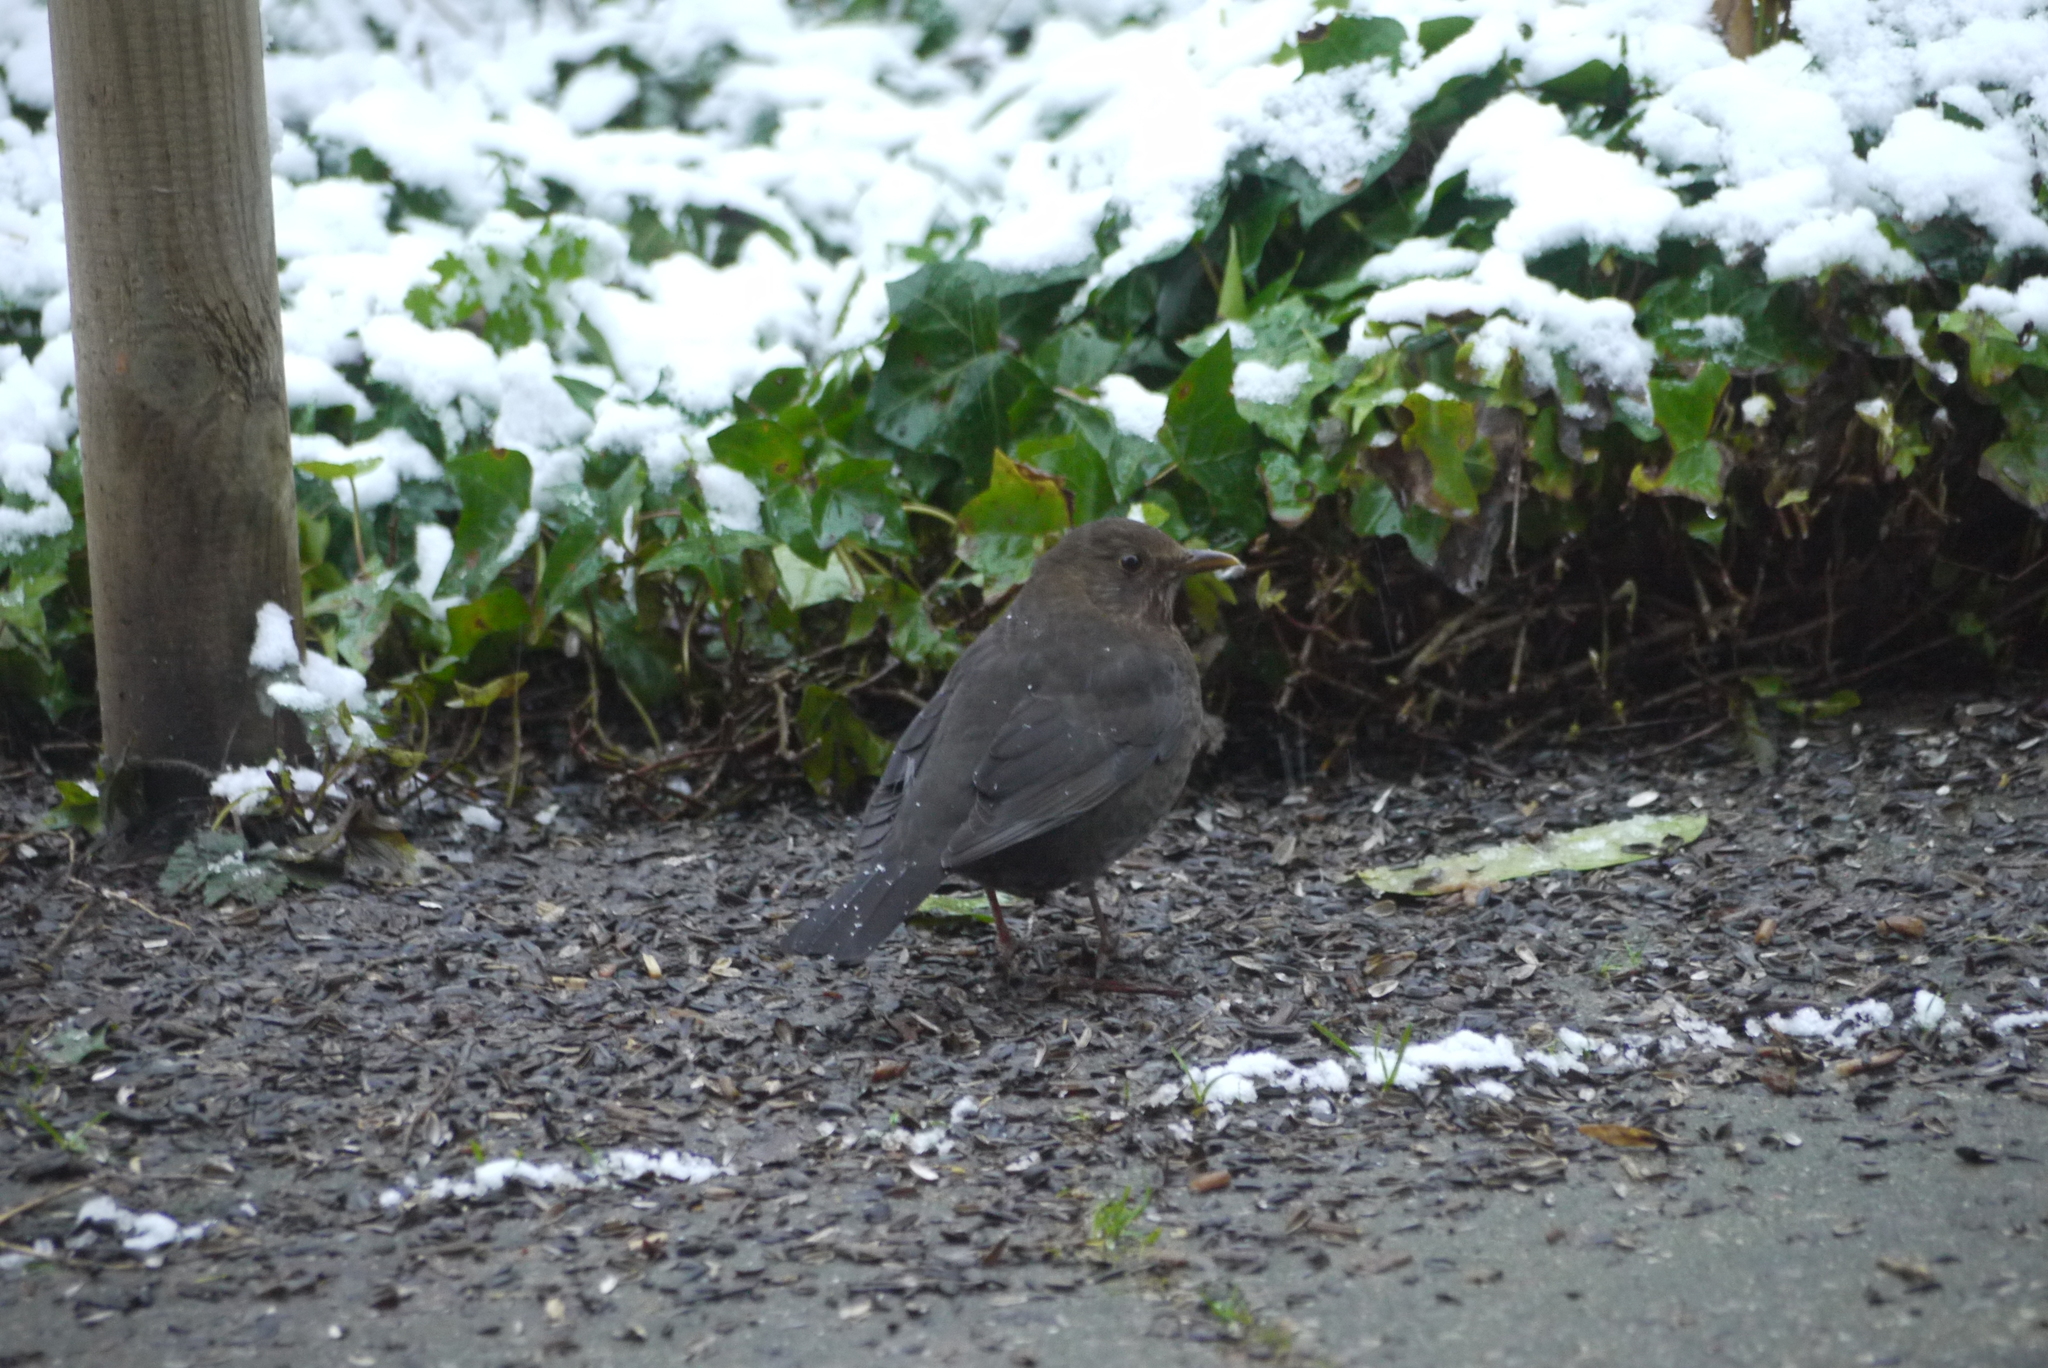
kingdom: Animalia
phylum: Chordata
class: Aves
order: Passeriformes
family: Turdidae
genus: Turdus
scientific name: Turdus merula
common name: Common blackbird
